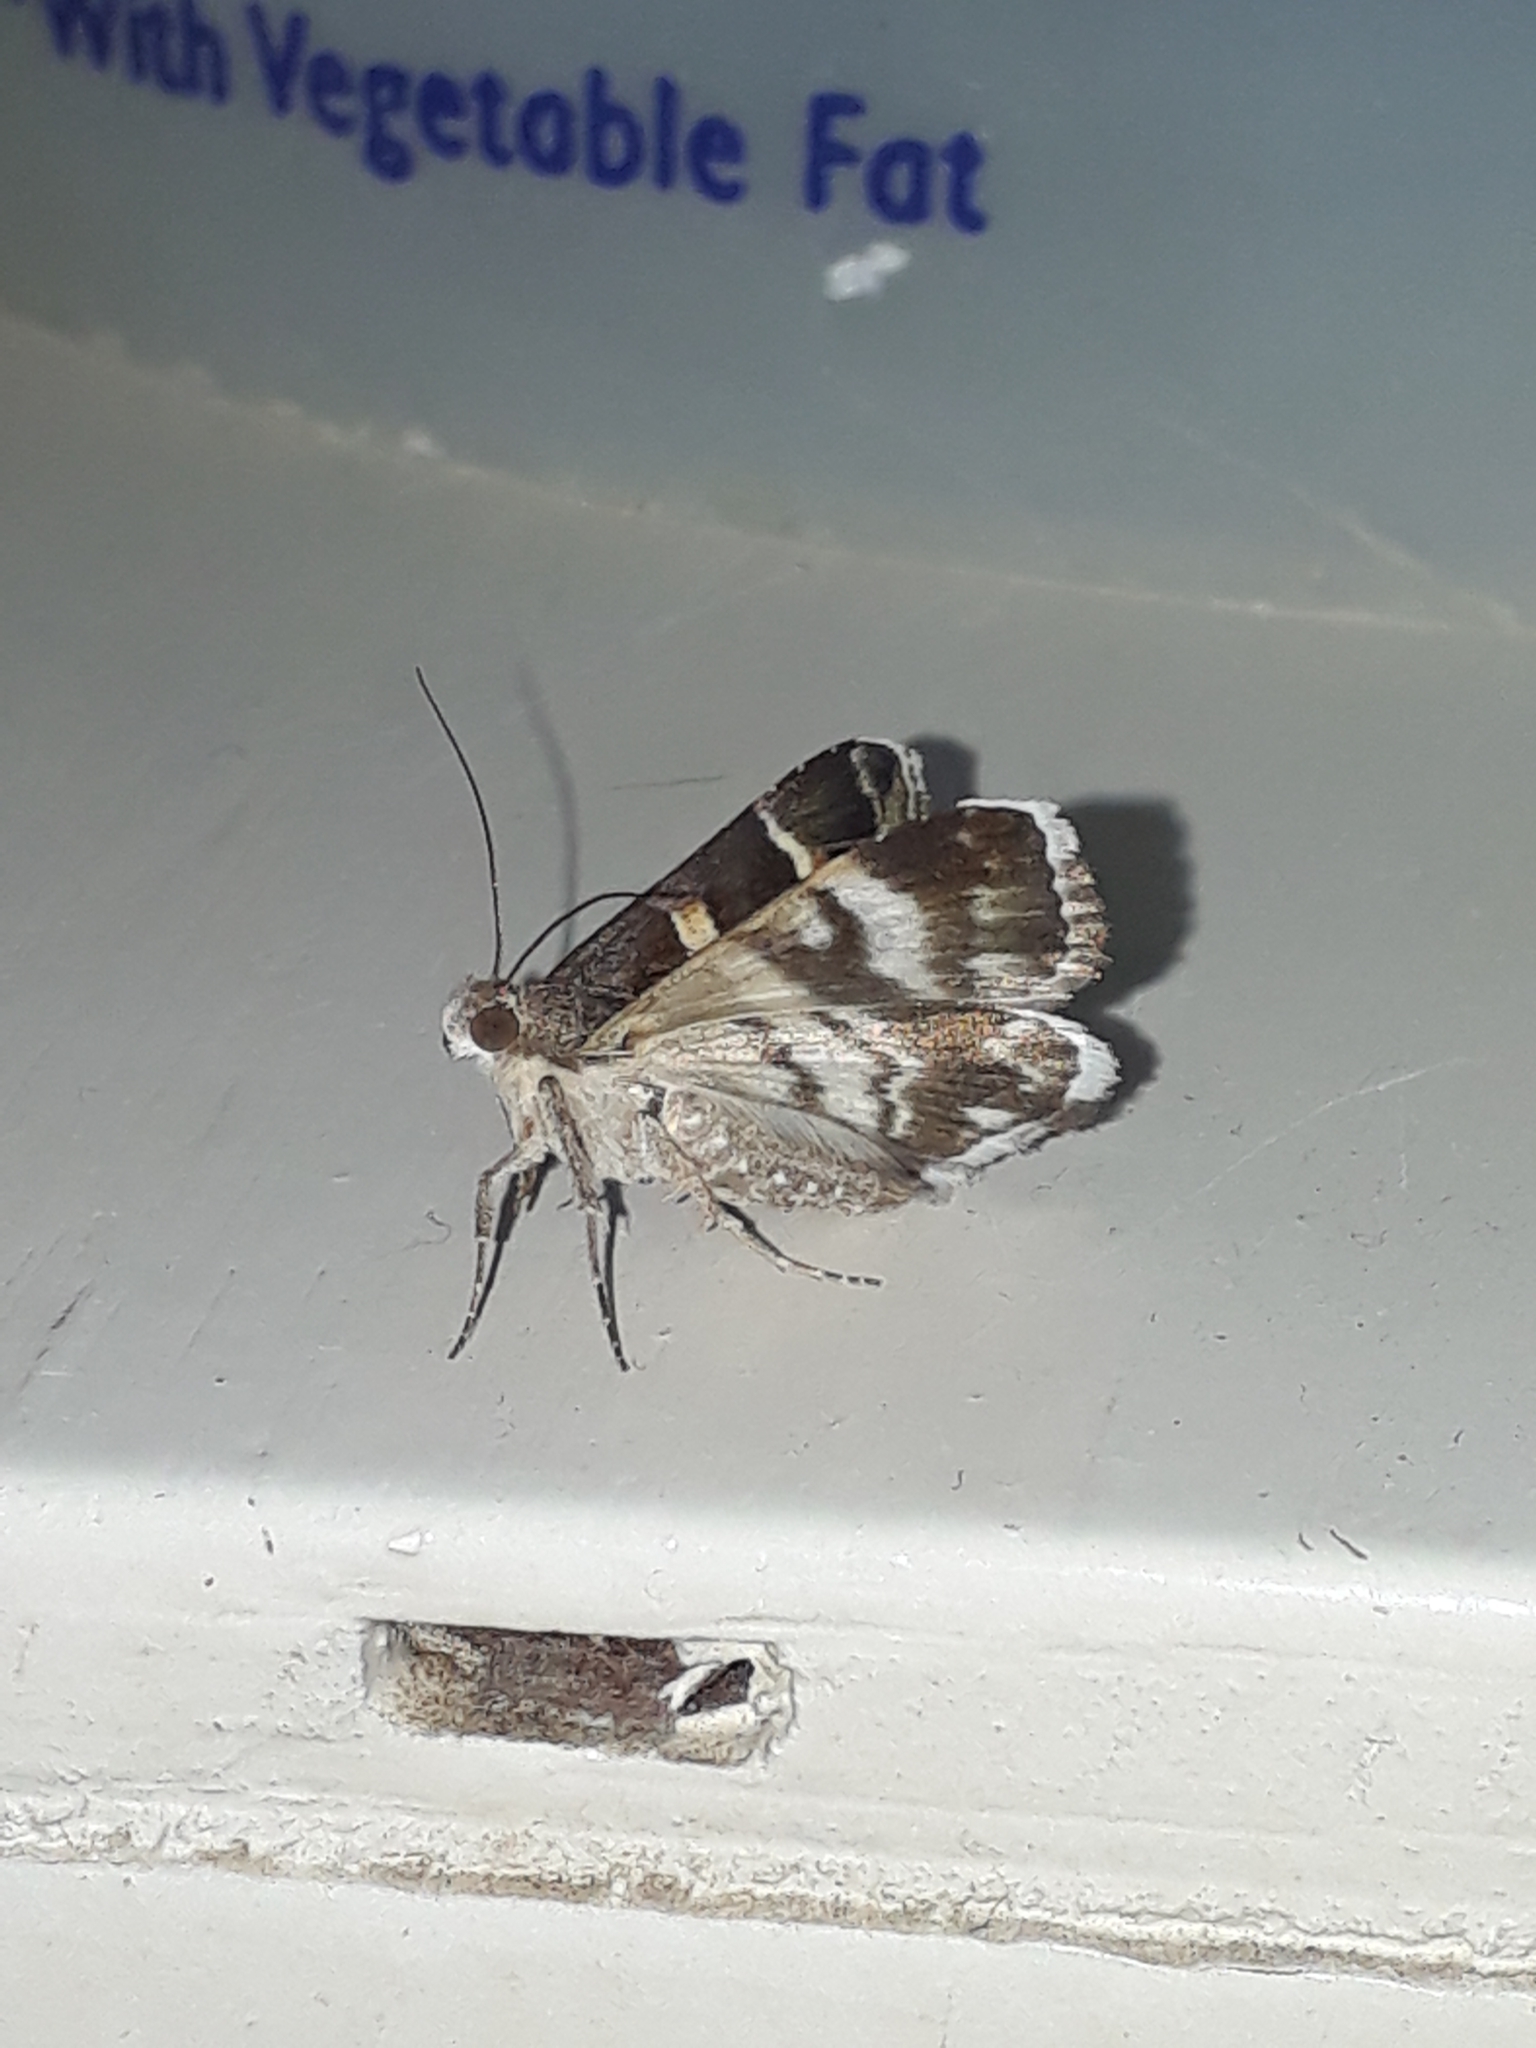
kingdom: Animalia
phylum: Arthropoda
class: Insecta
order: Lepidoptera
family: Erebidae
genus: Grammodes
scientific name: Grammodes stolida
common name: Geometrician
